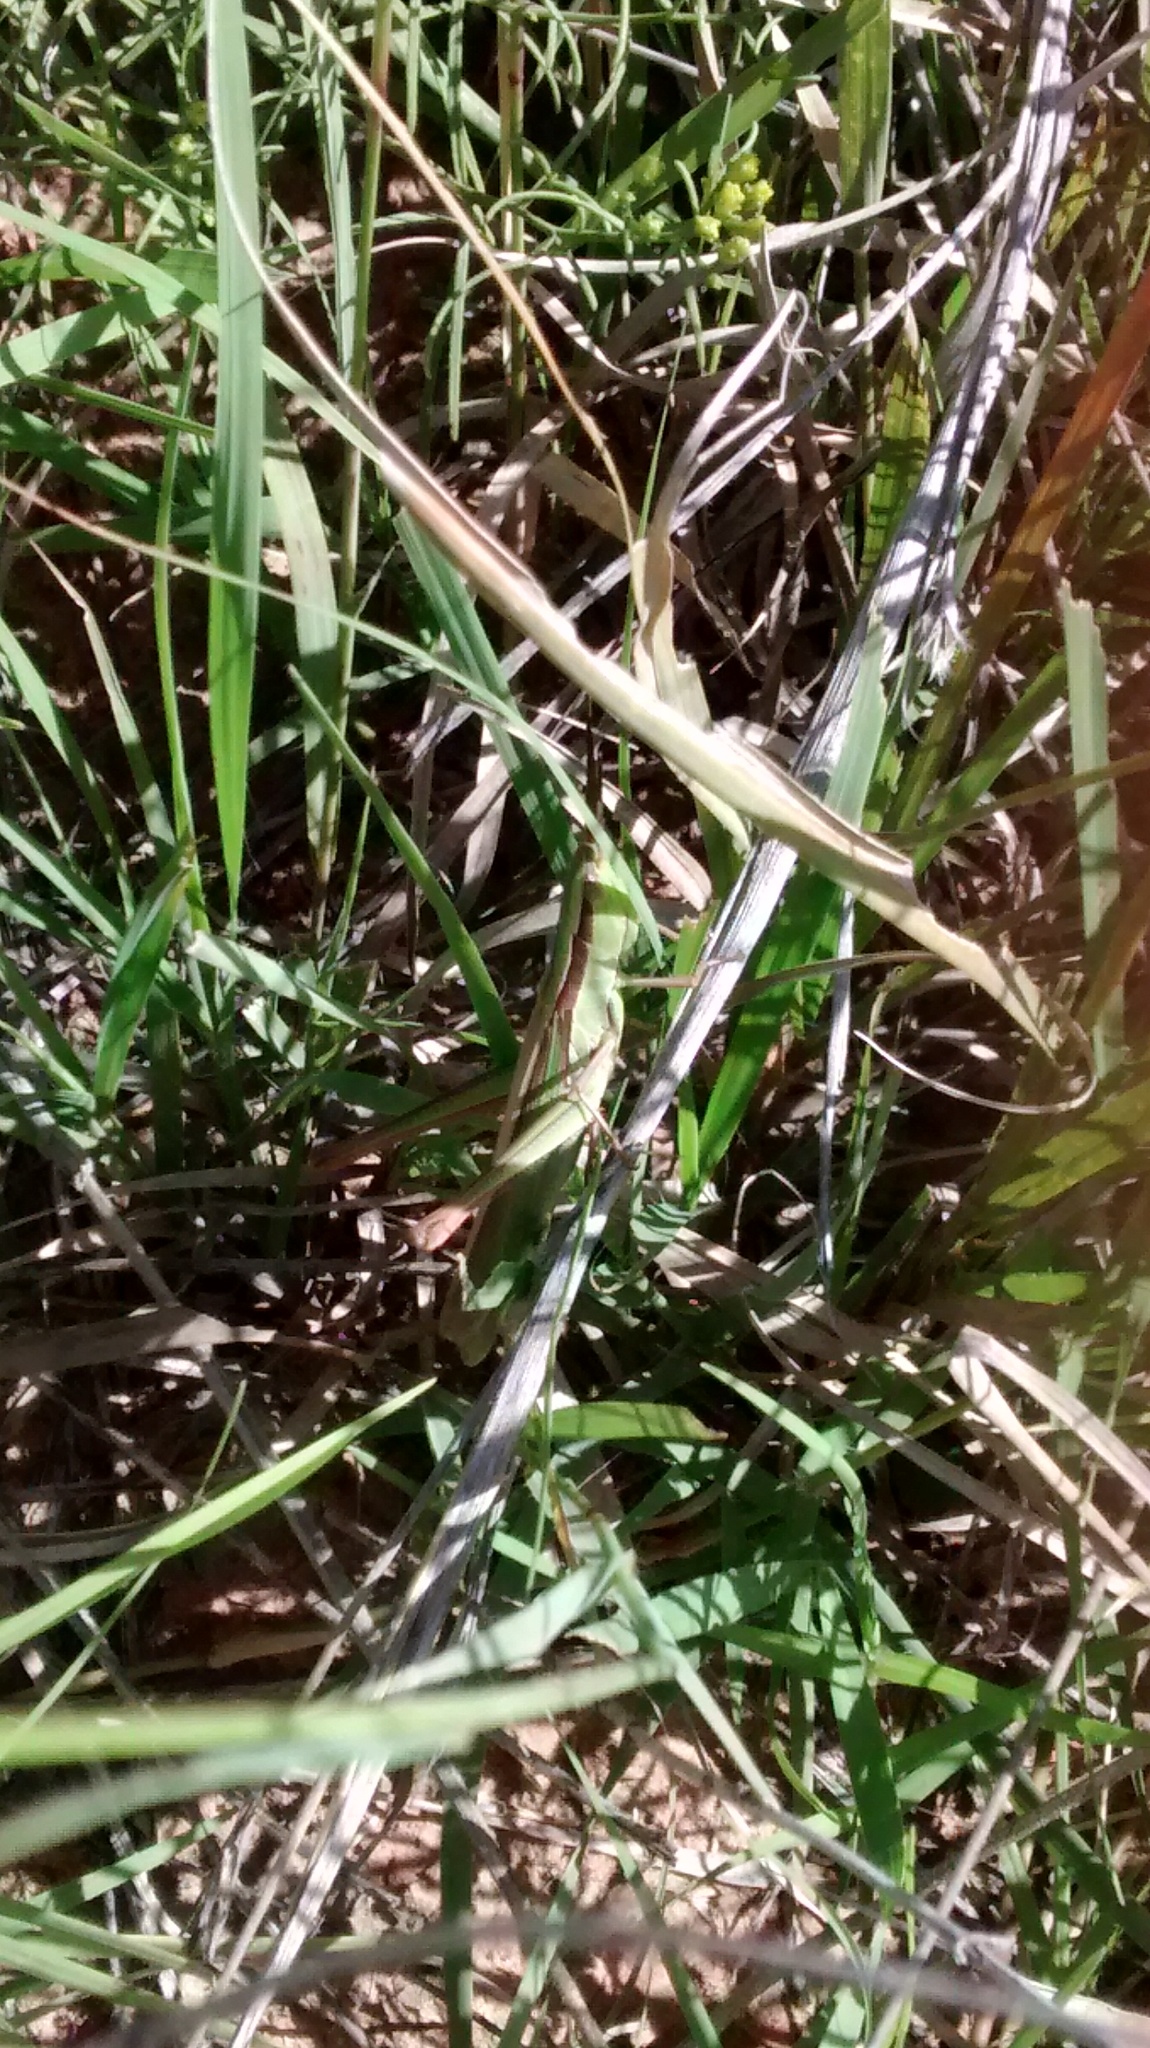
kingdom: Animalia
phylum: Arthropoda
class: Insecta
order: Orthoptera
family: Acrididae
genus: Mermiria
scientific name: Mermiria picta
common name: Lively mermiria grasshopper
